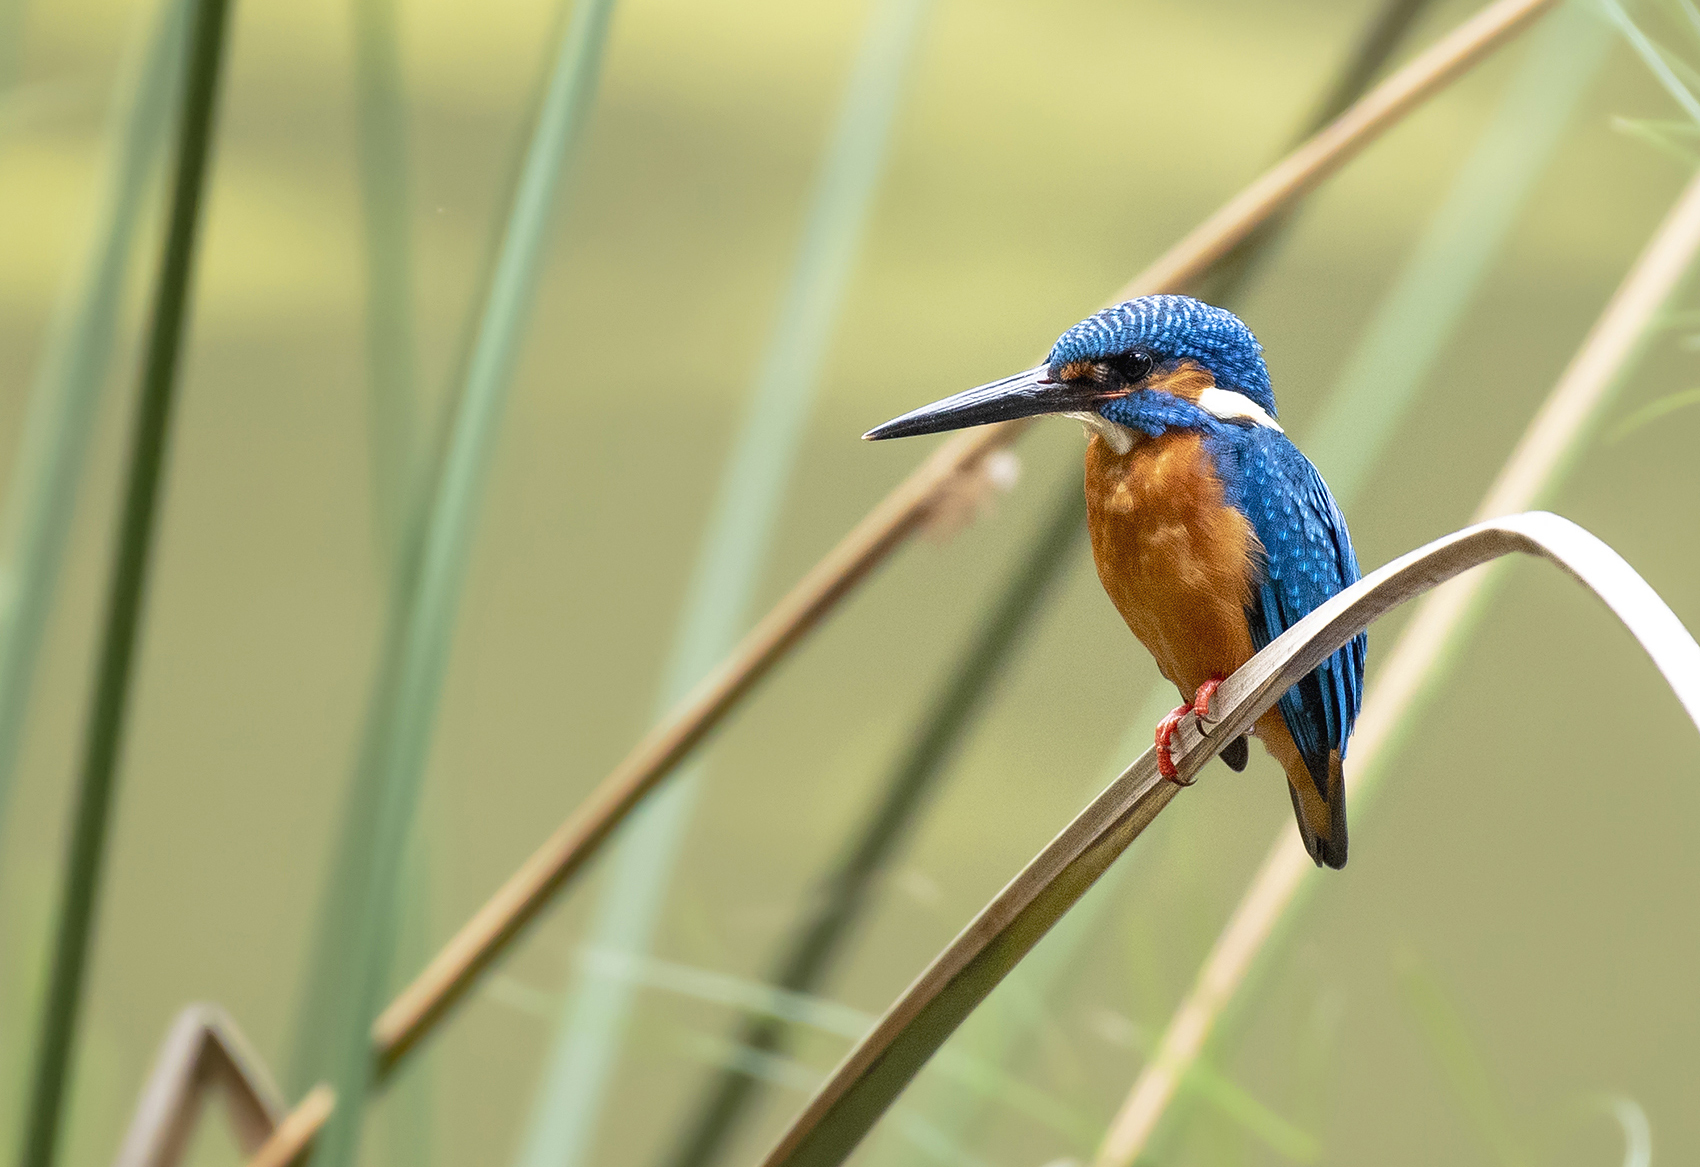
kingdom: Animalia
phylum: Chordata
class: Aves
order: Coraciiformes
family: Alcedinidae
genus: Alcedo
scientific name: Alcedo atthis
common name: Common kingfisher
